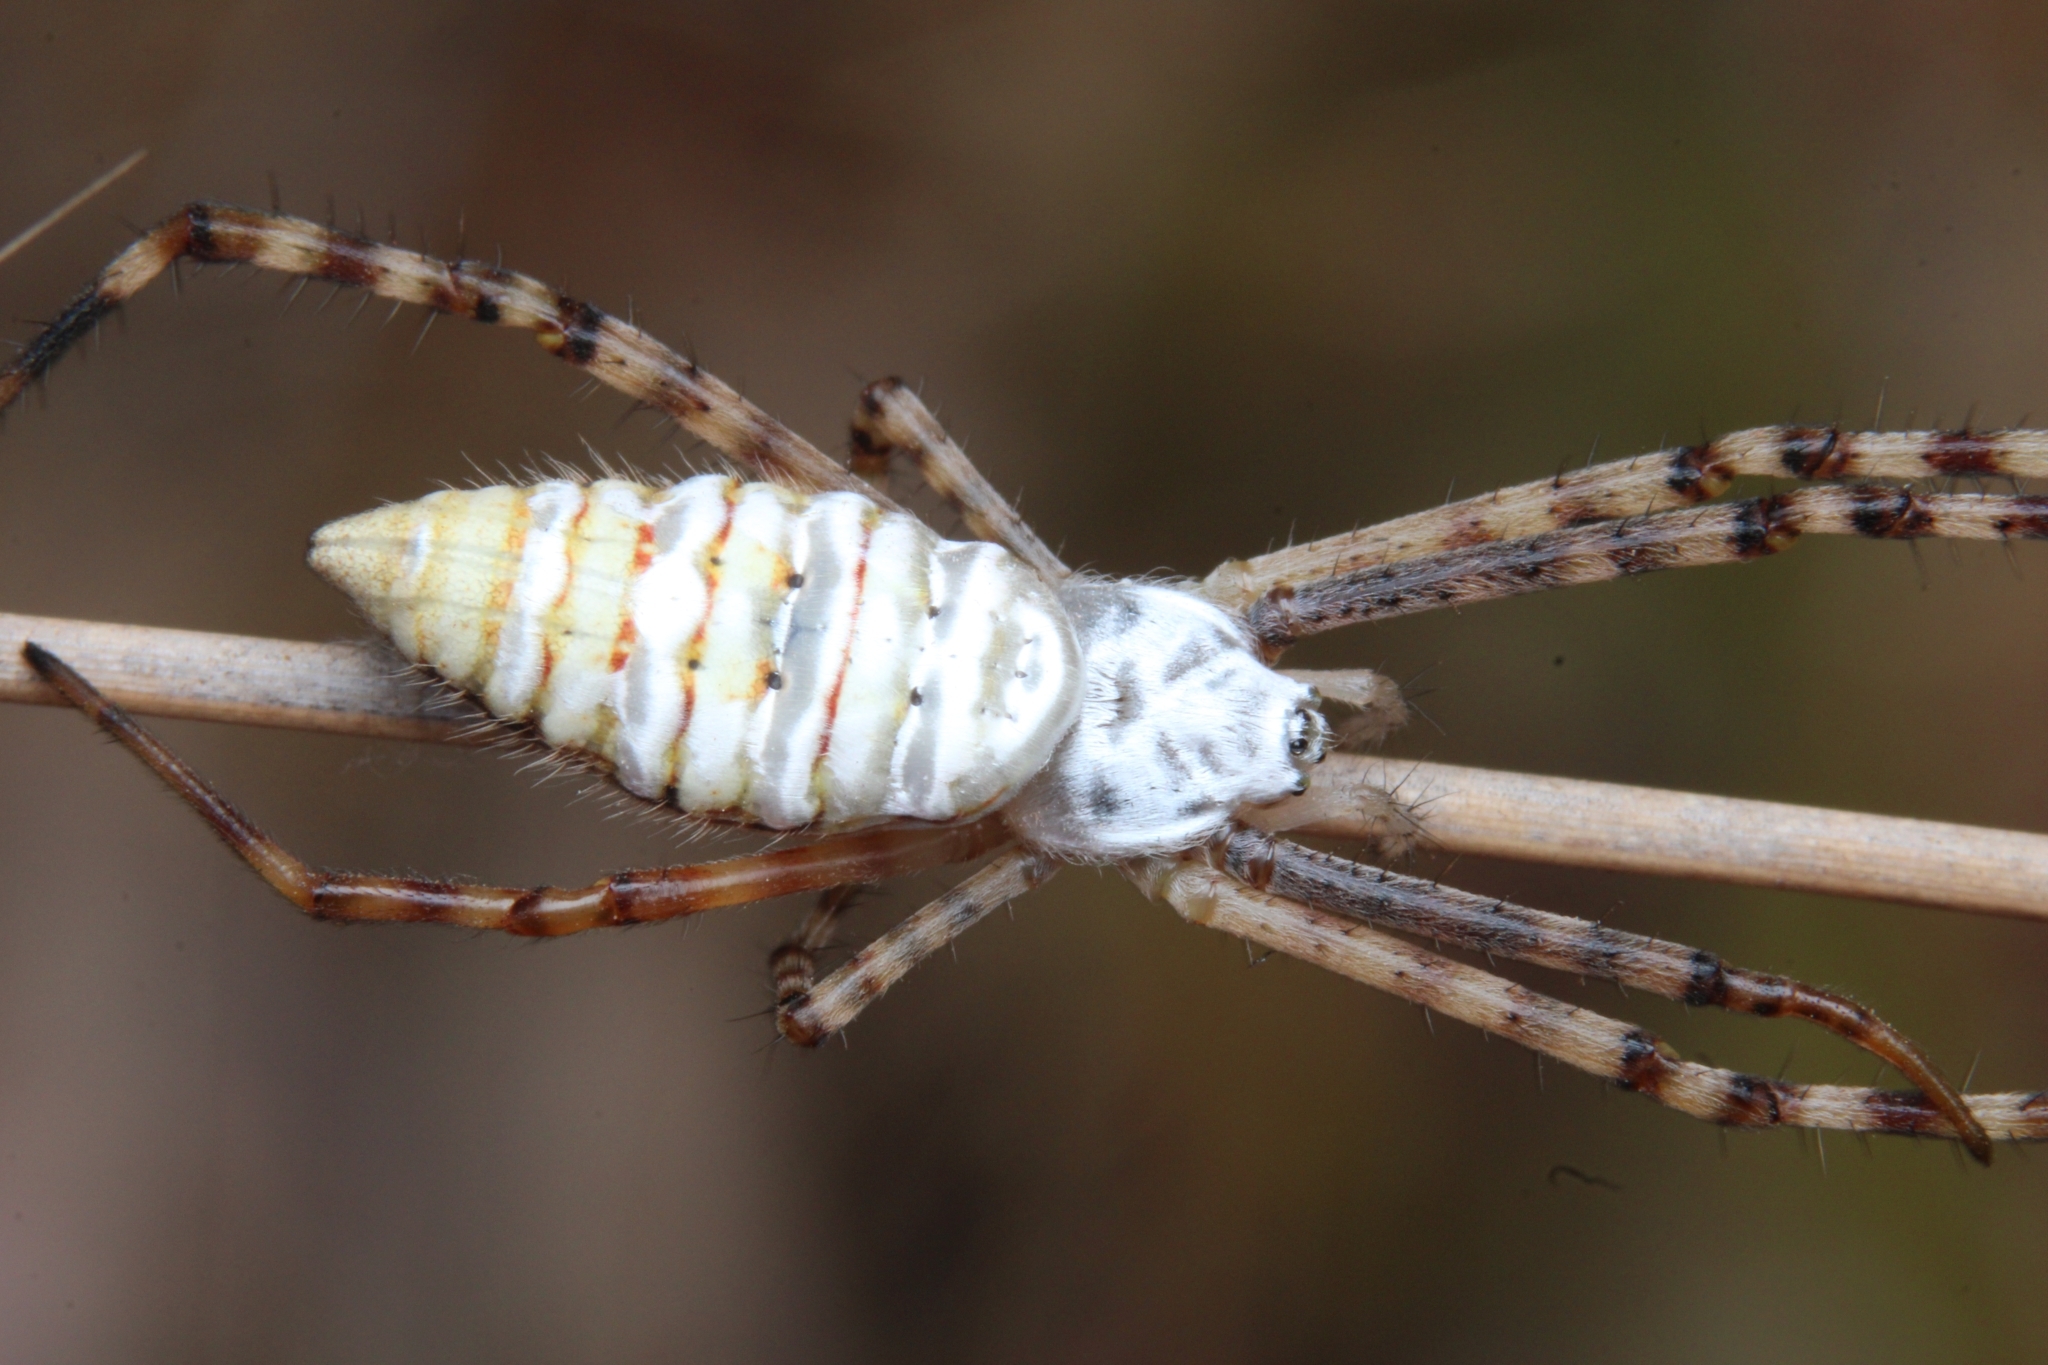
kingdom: Animalia
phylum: Arthropoda
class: Arachnida
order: Araneae
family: Araneidae
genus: Argiope
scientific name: Argiope trifasciata
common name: Banded garden spider
